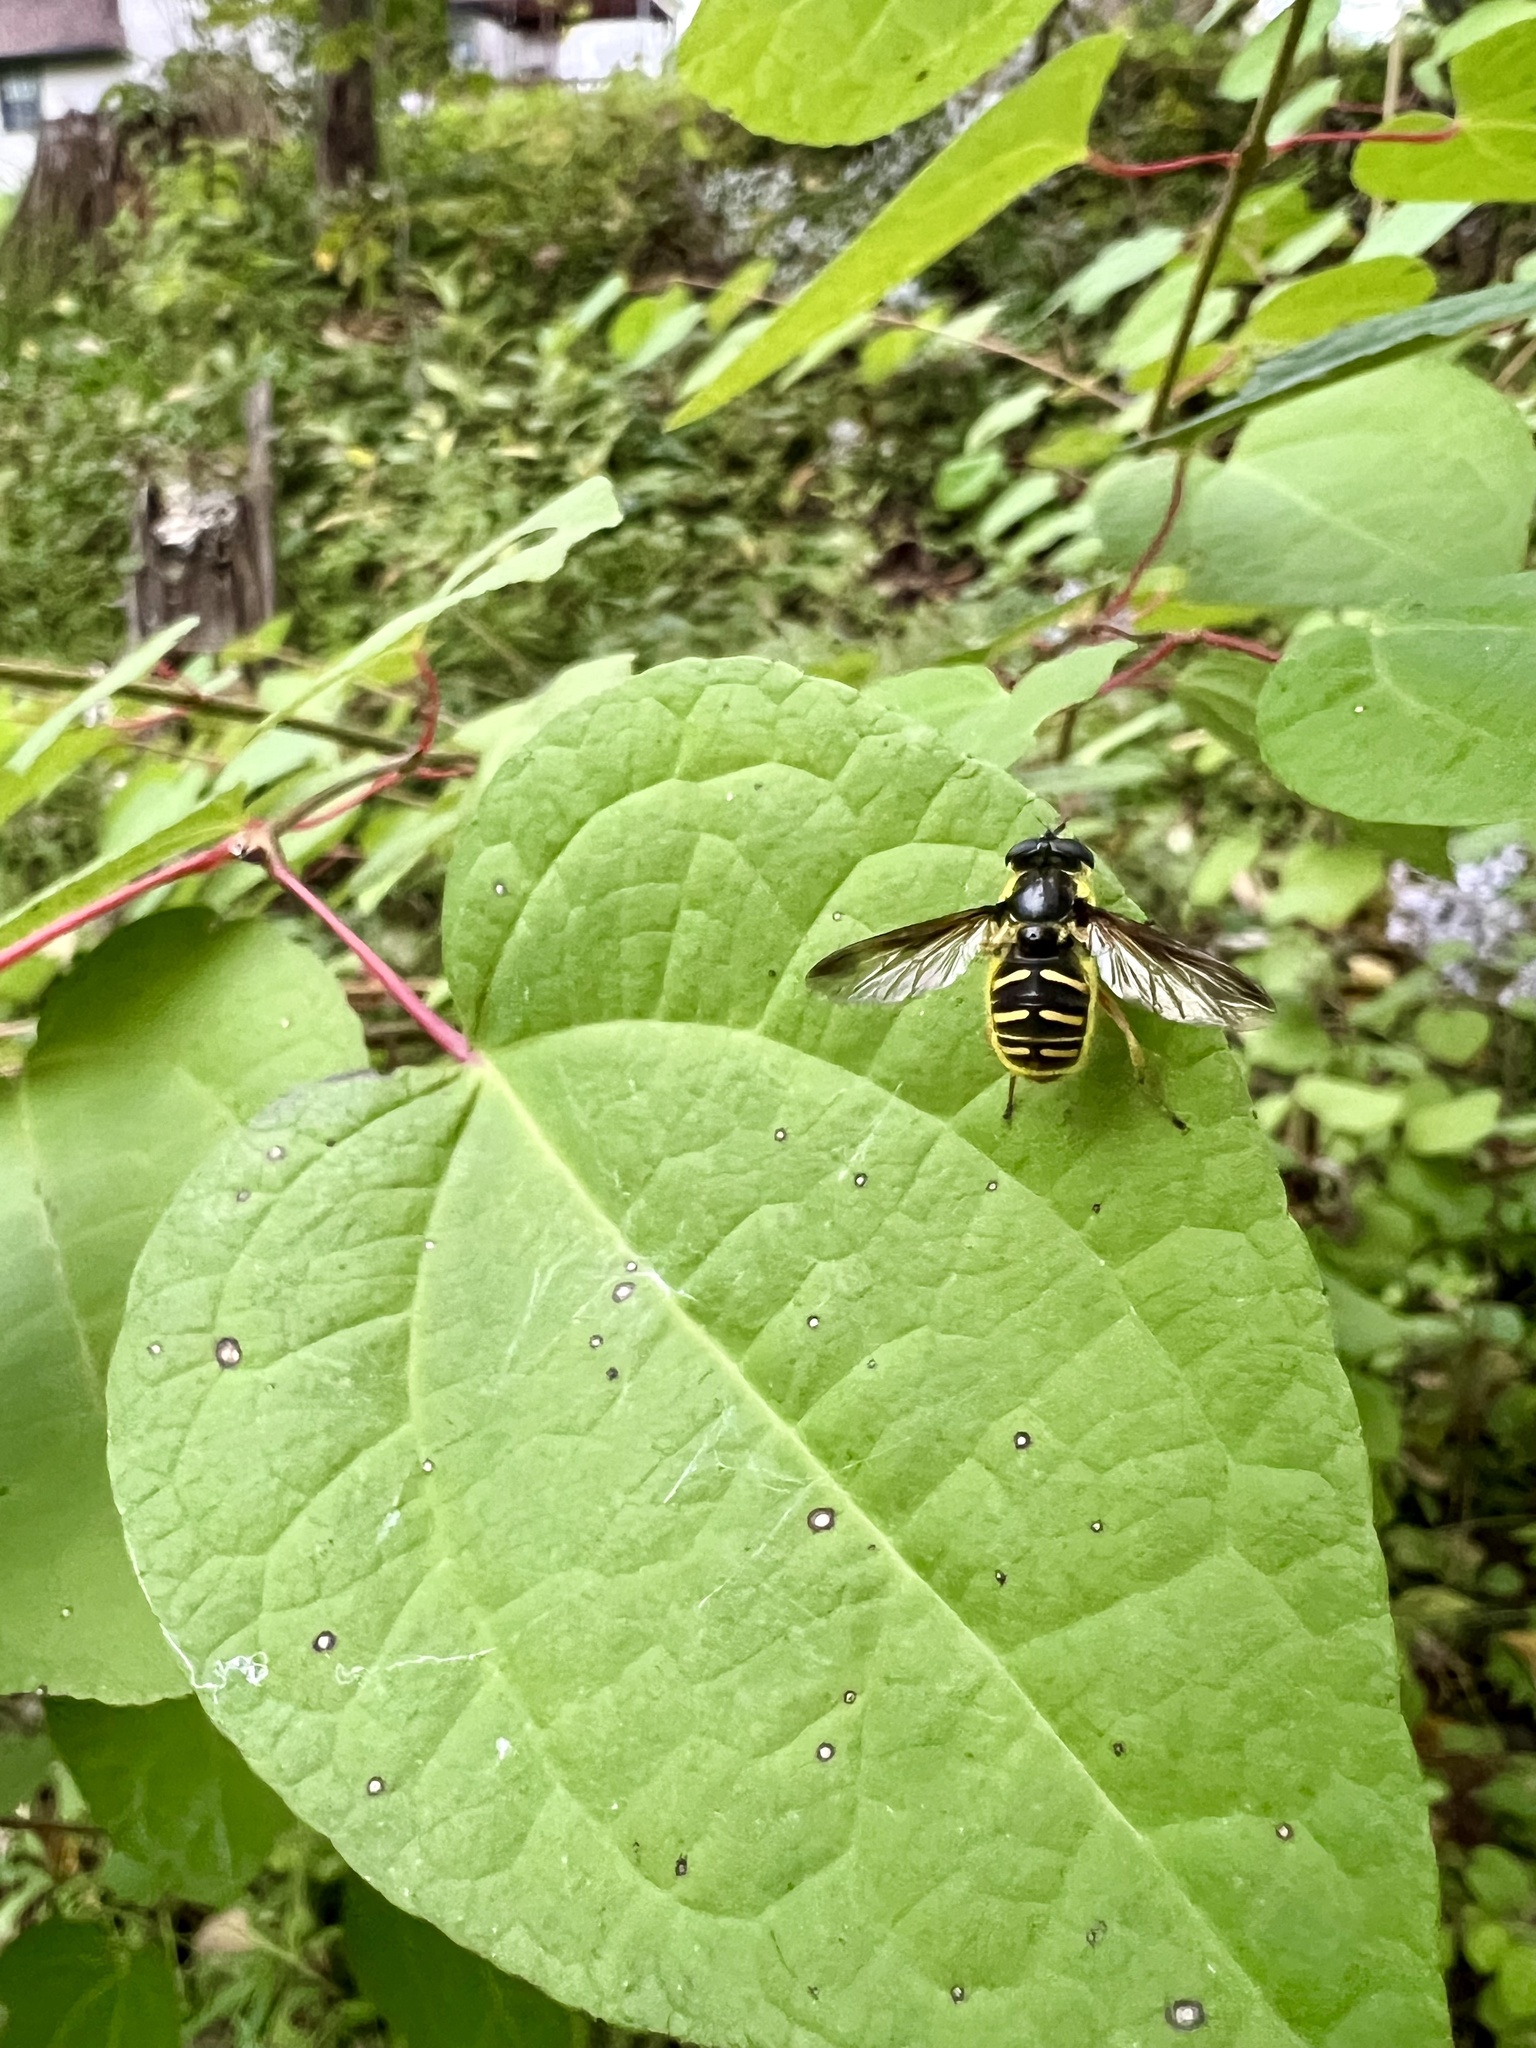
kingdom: Animalia
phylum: Arthropoda
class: Insecta
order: Diptera
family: Syrphidae
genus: Sericomyia
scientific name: Sericomyia chrysotoxoides
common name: Oblique-banded pond fly
